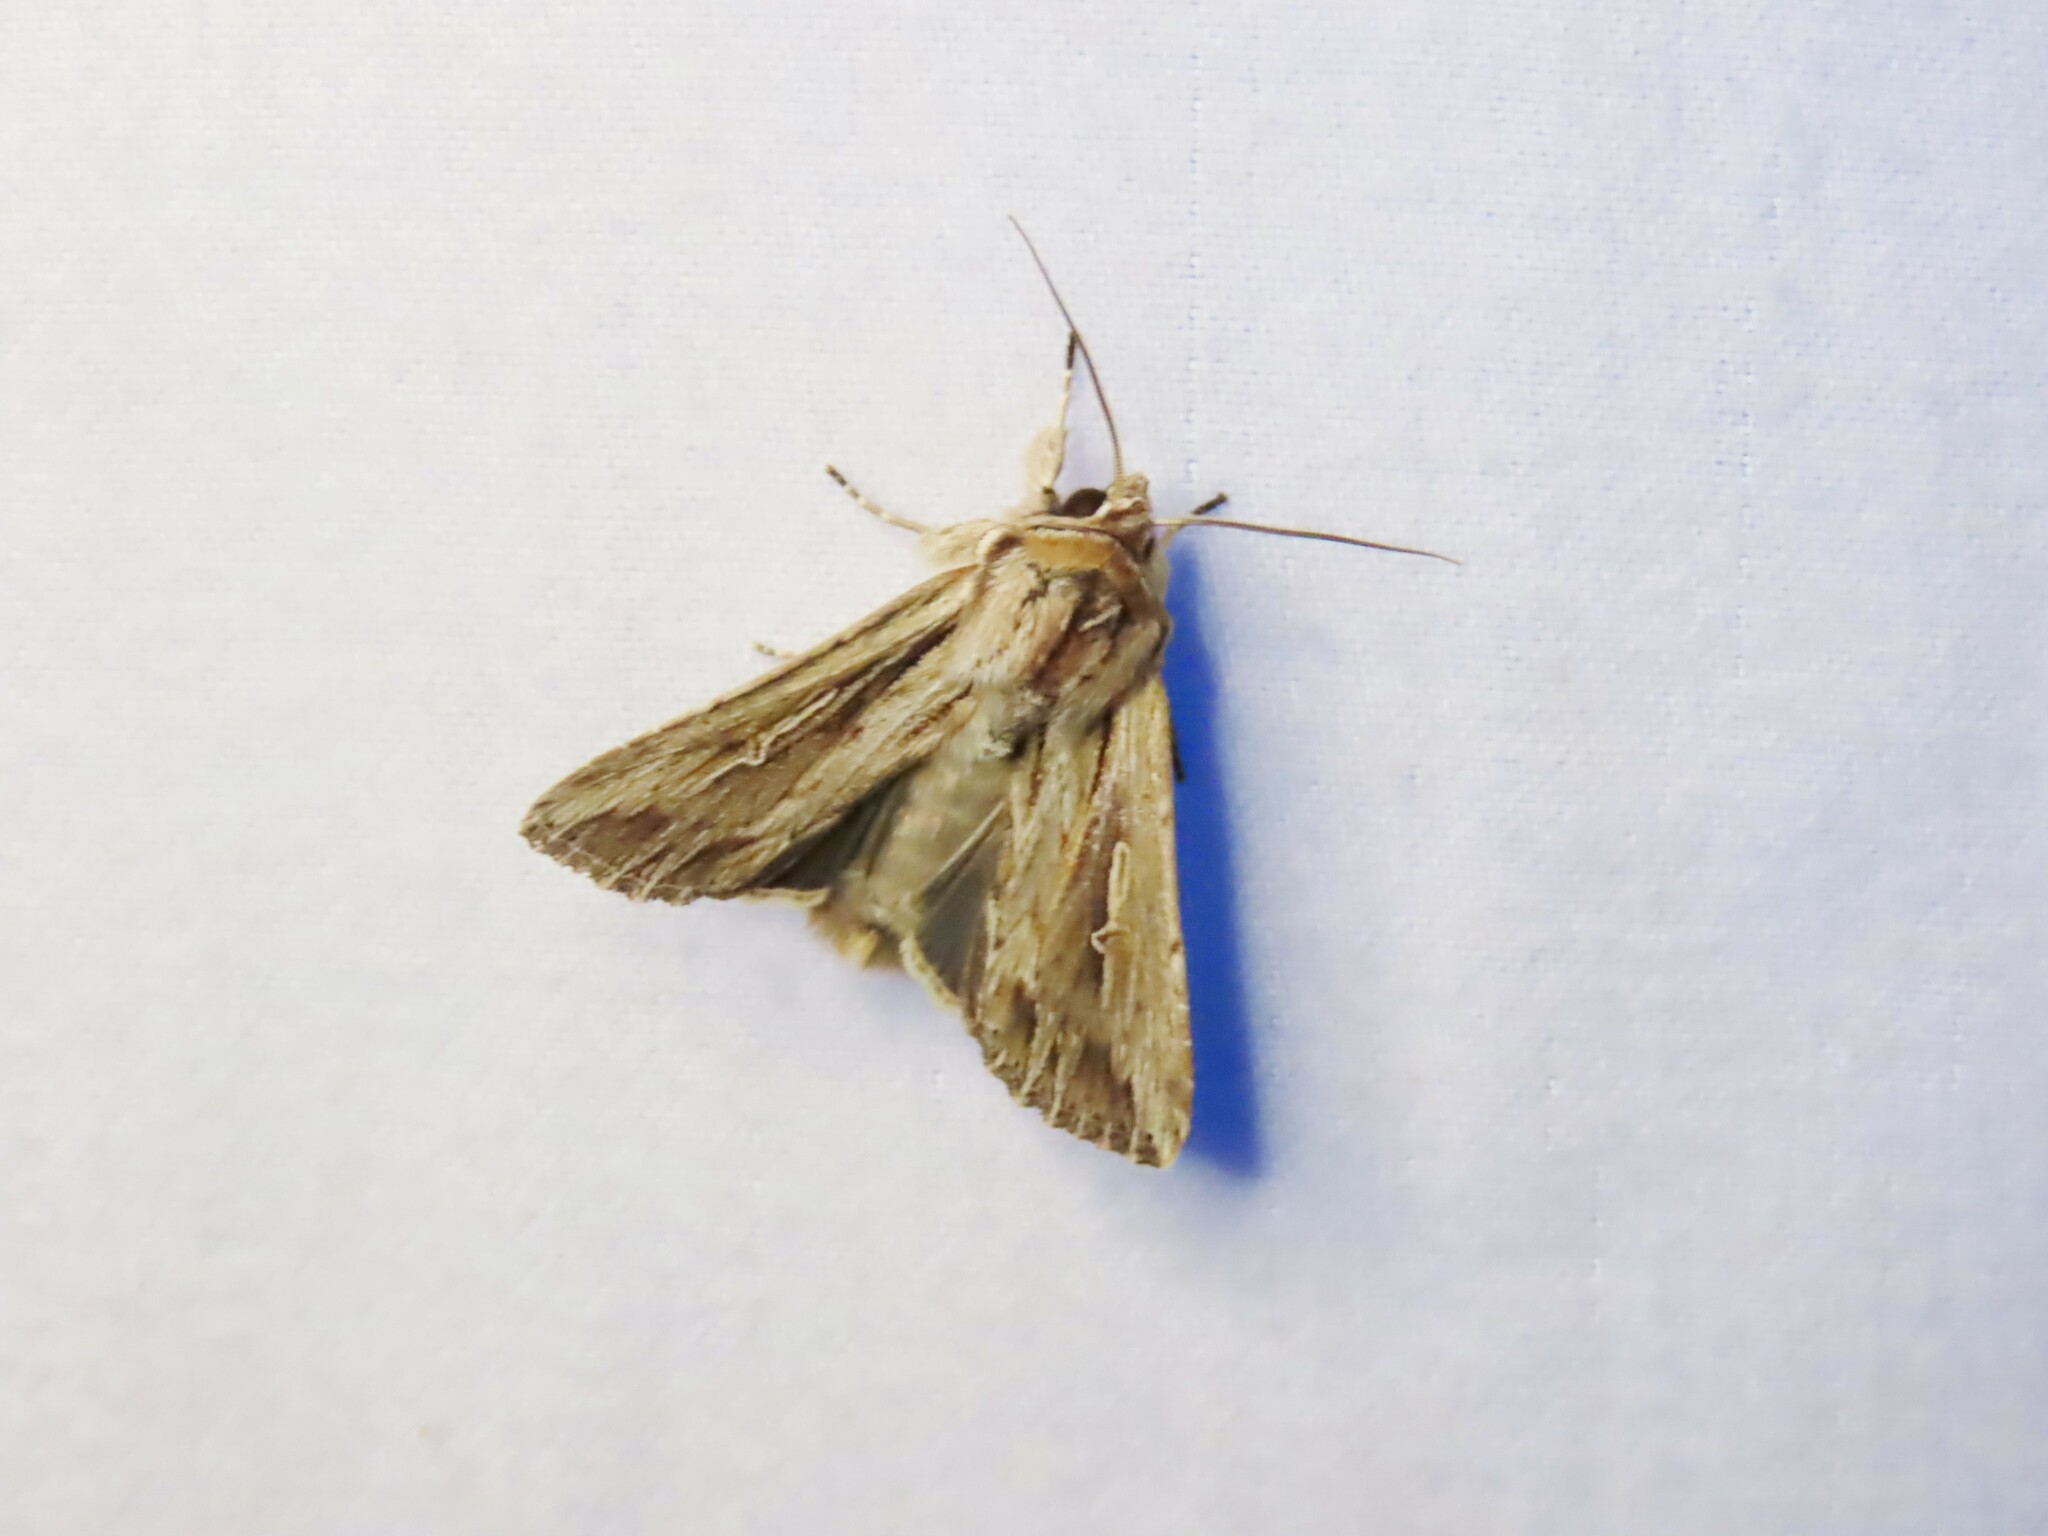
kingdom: Animalia
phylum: Arthropoda
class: Insecta
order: Lepidoptera
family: Noctuidae
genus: Persectania
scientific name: Persectania ewingii
